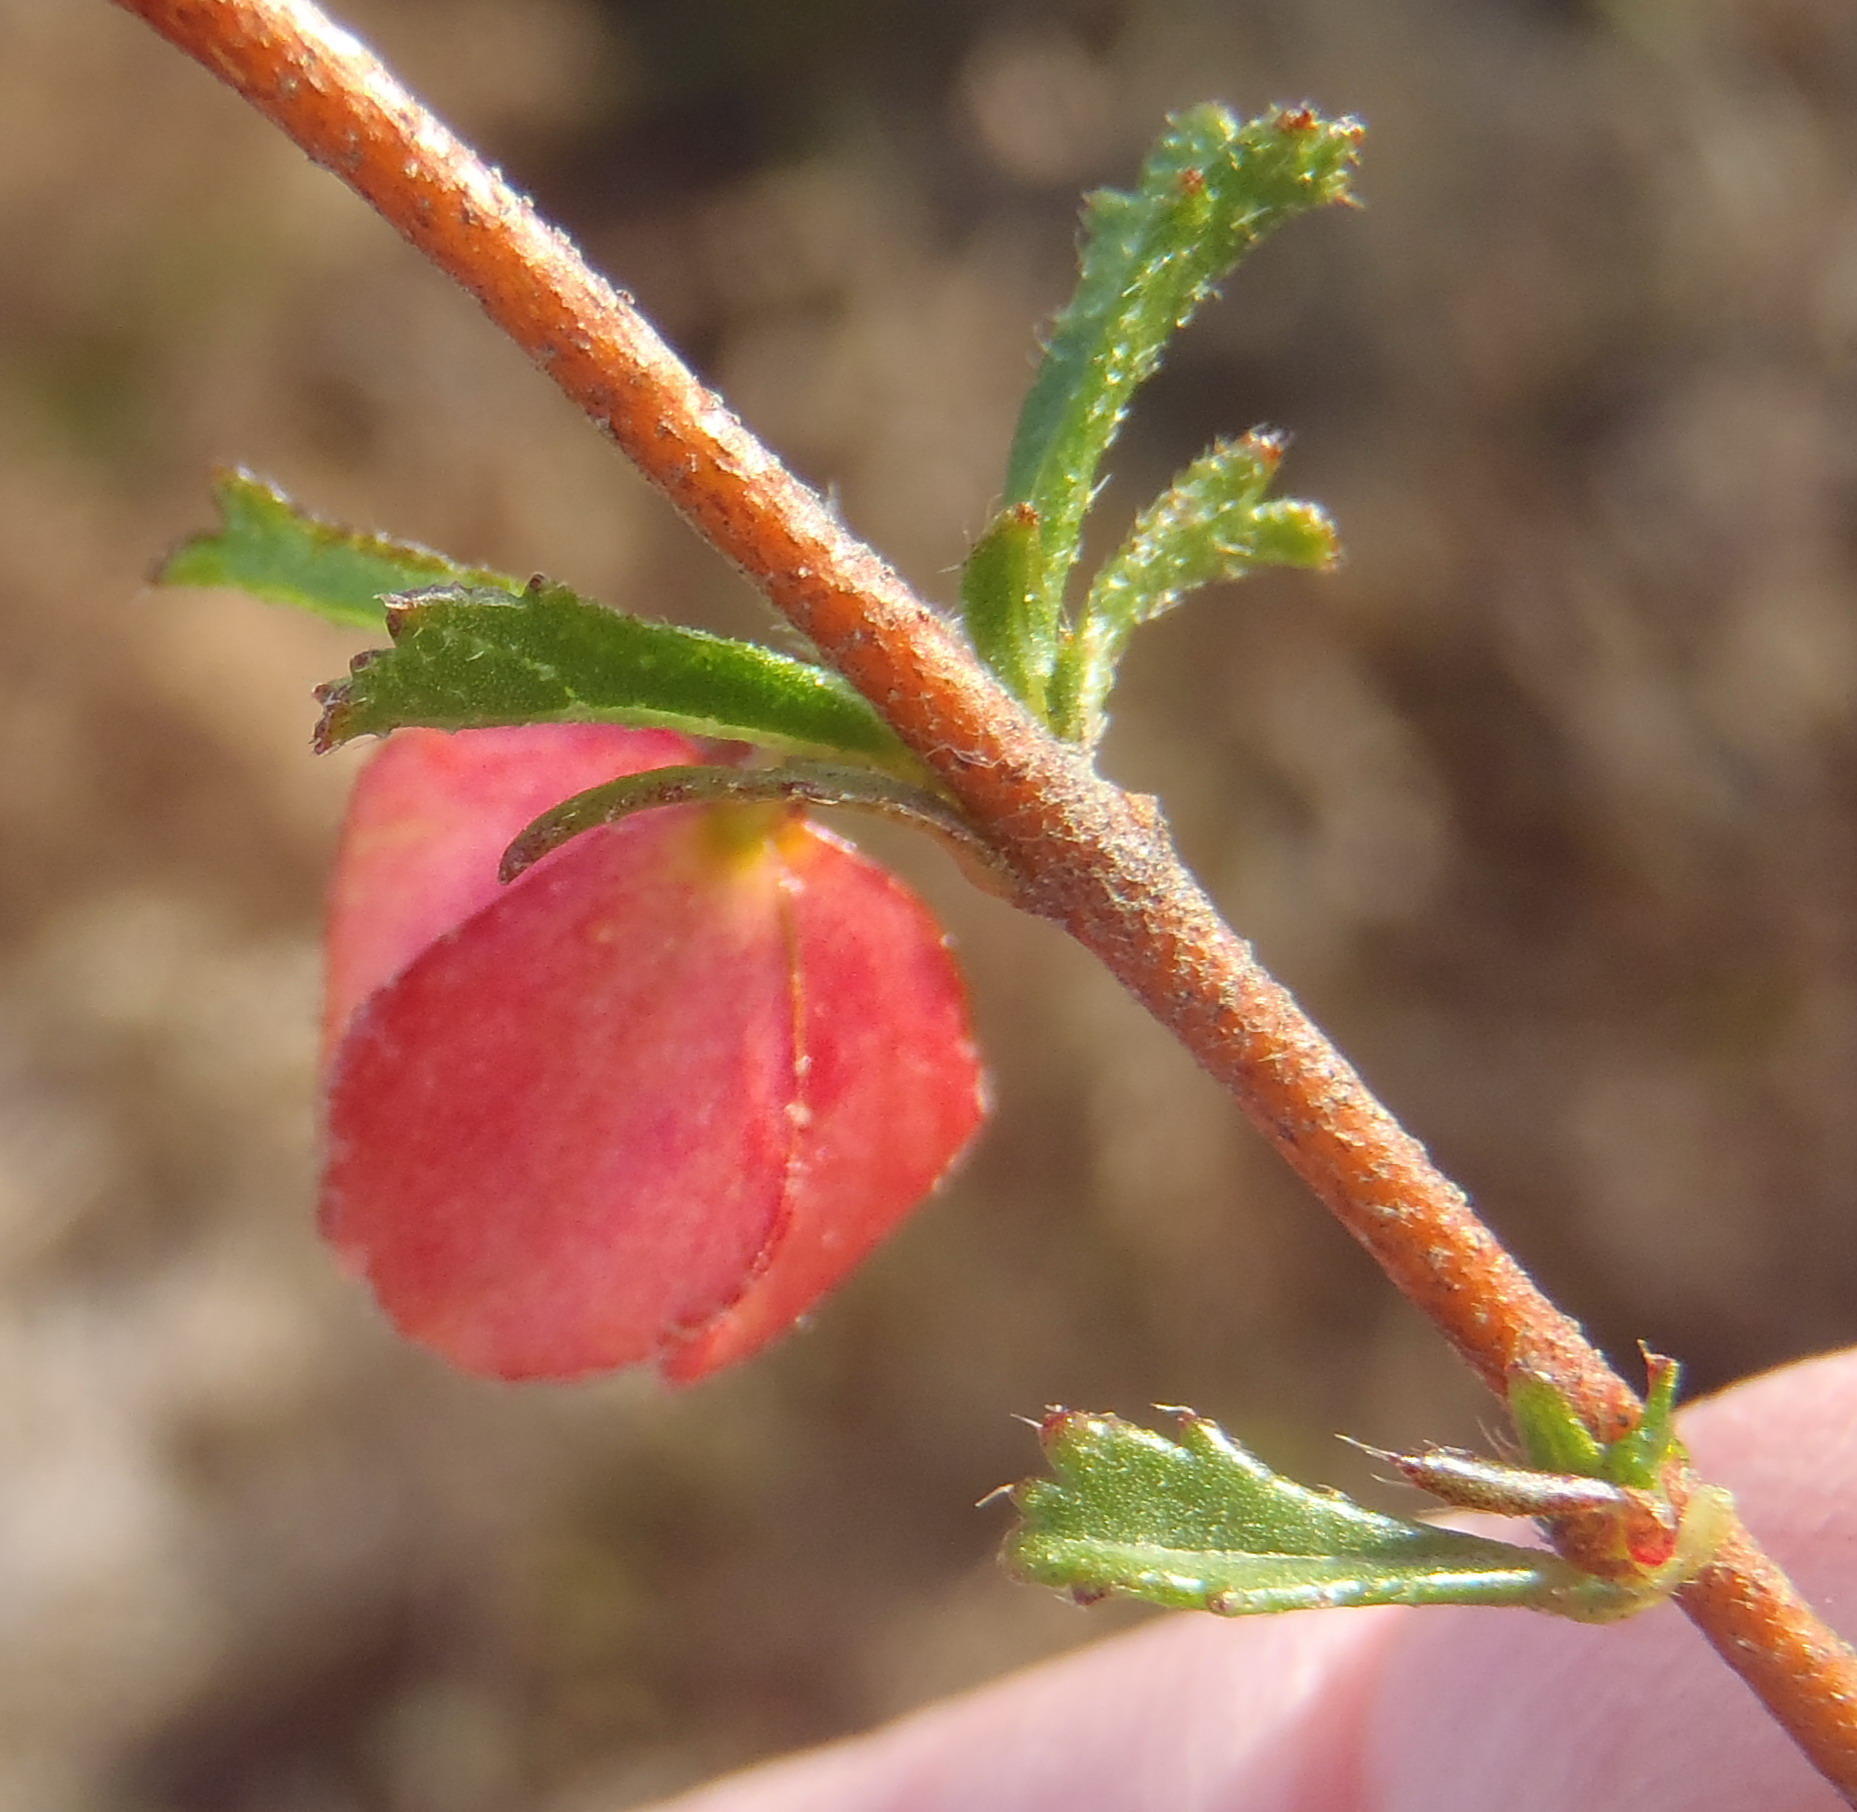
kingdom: Plantae
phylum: Tracheophyta
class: Magnoliopsida
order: Malvales
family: Malvaceae
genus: Hermannia
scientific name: Hermannia angularis
